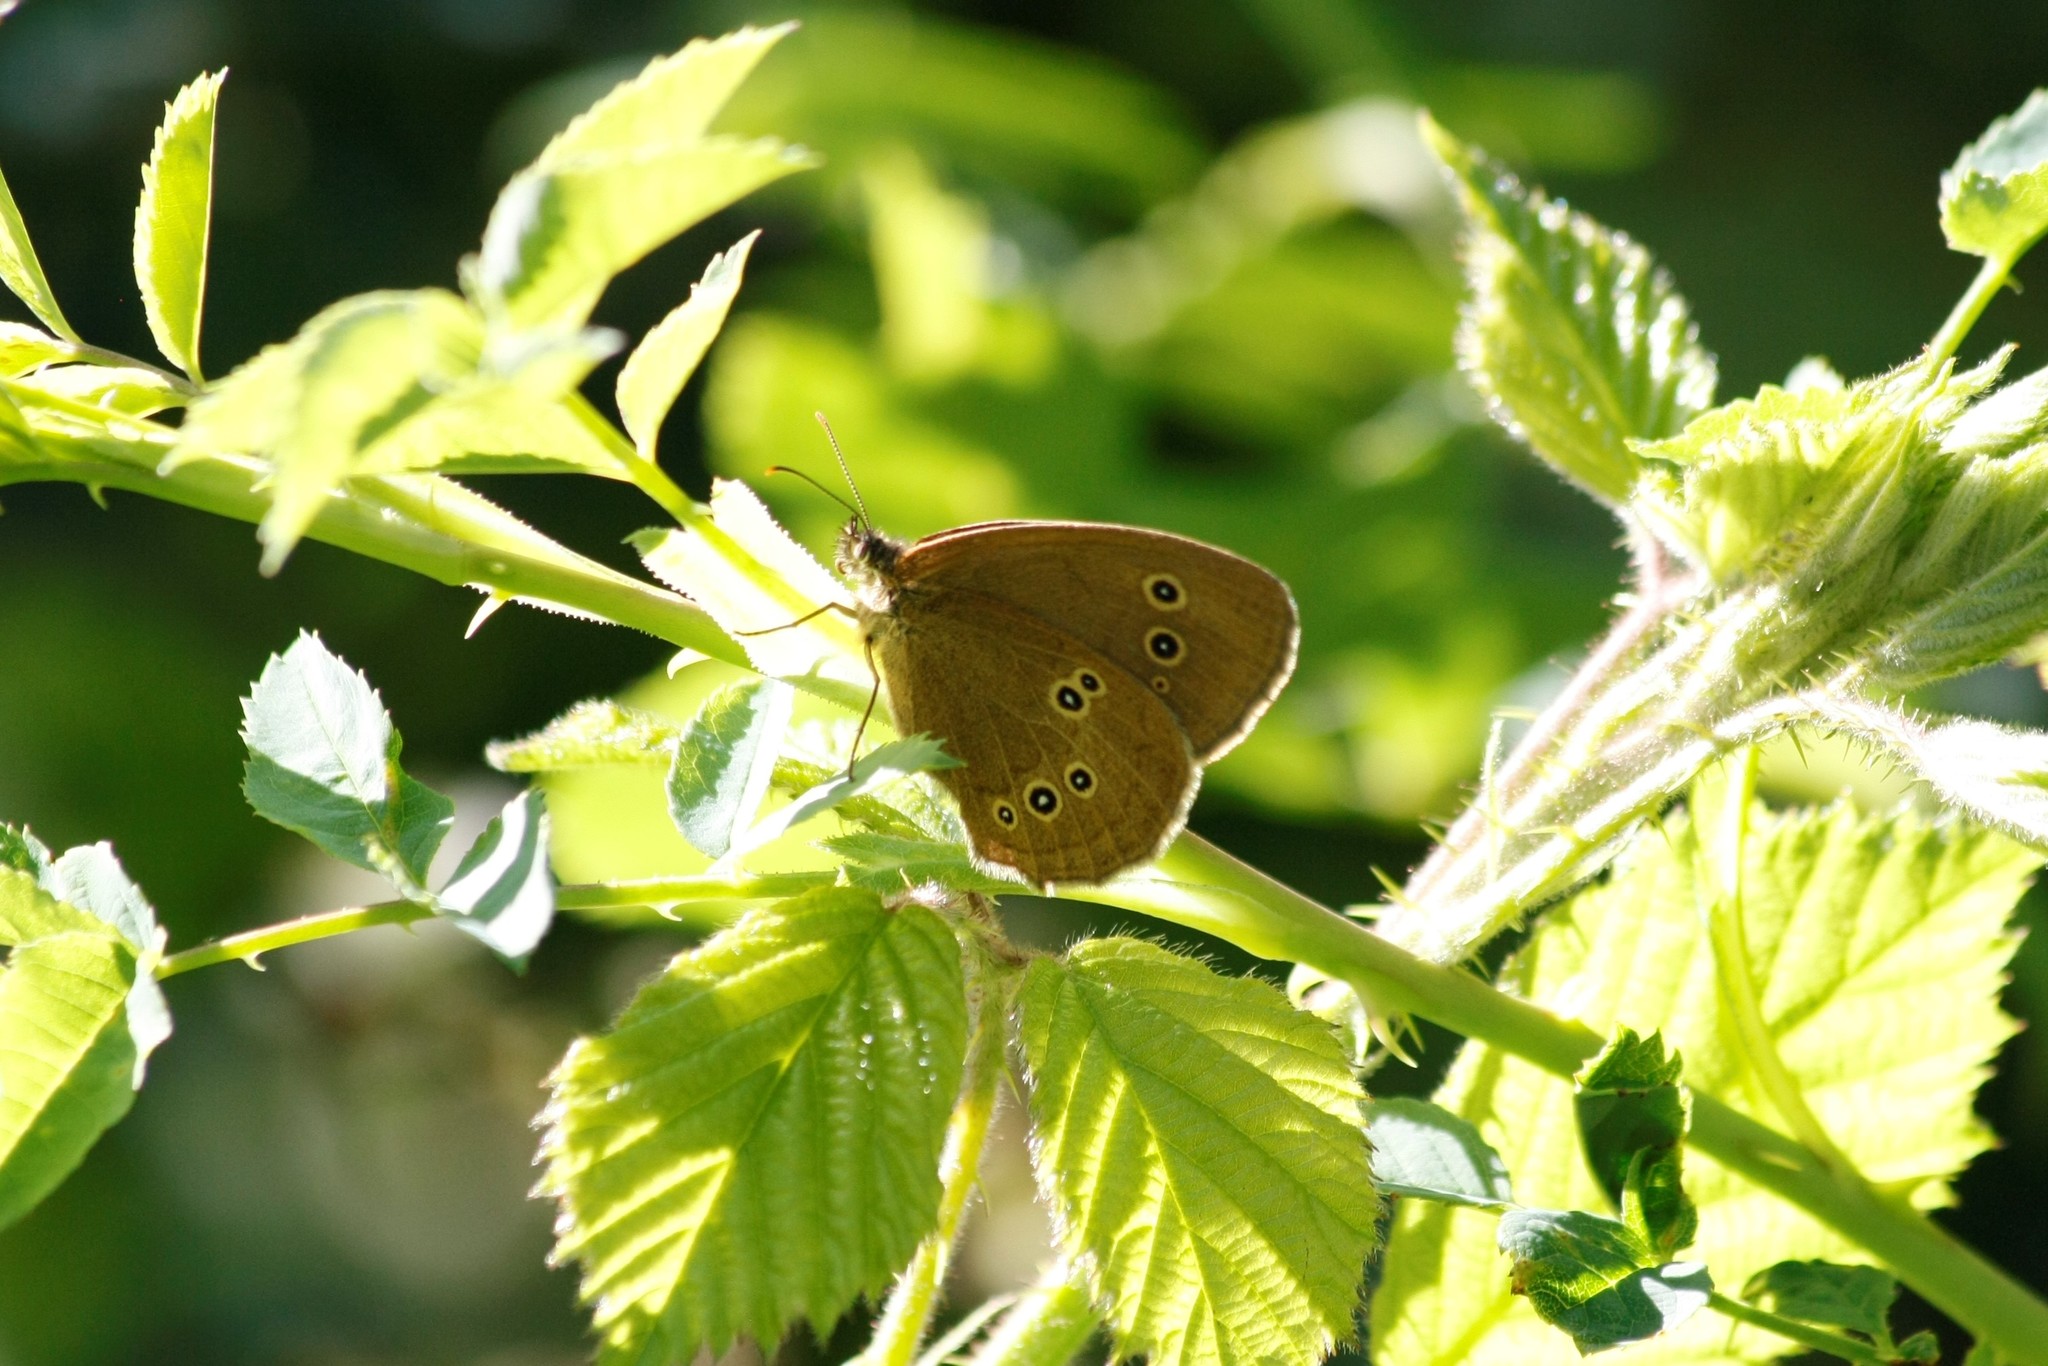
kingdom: Animalia
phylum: Arthropoda
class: Insecta
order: Lepidoptera
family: Nymphalidae
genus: Aphantopus
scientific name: Aphantopus hyperantus
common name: Ringlet
